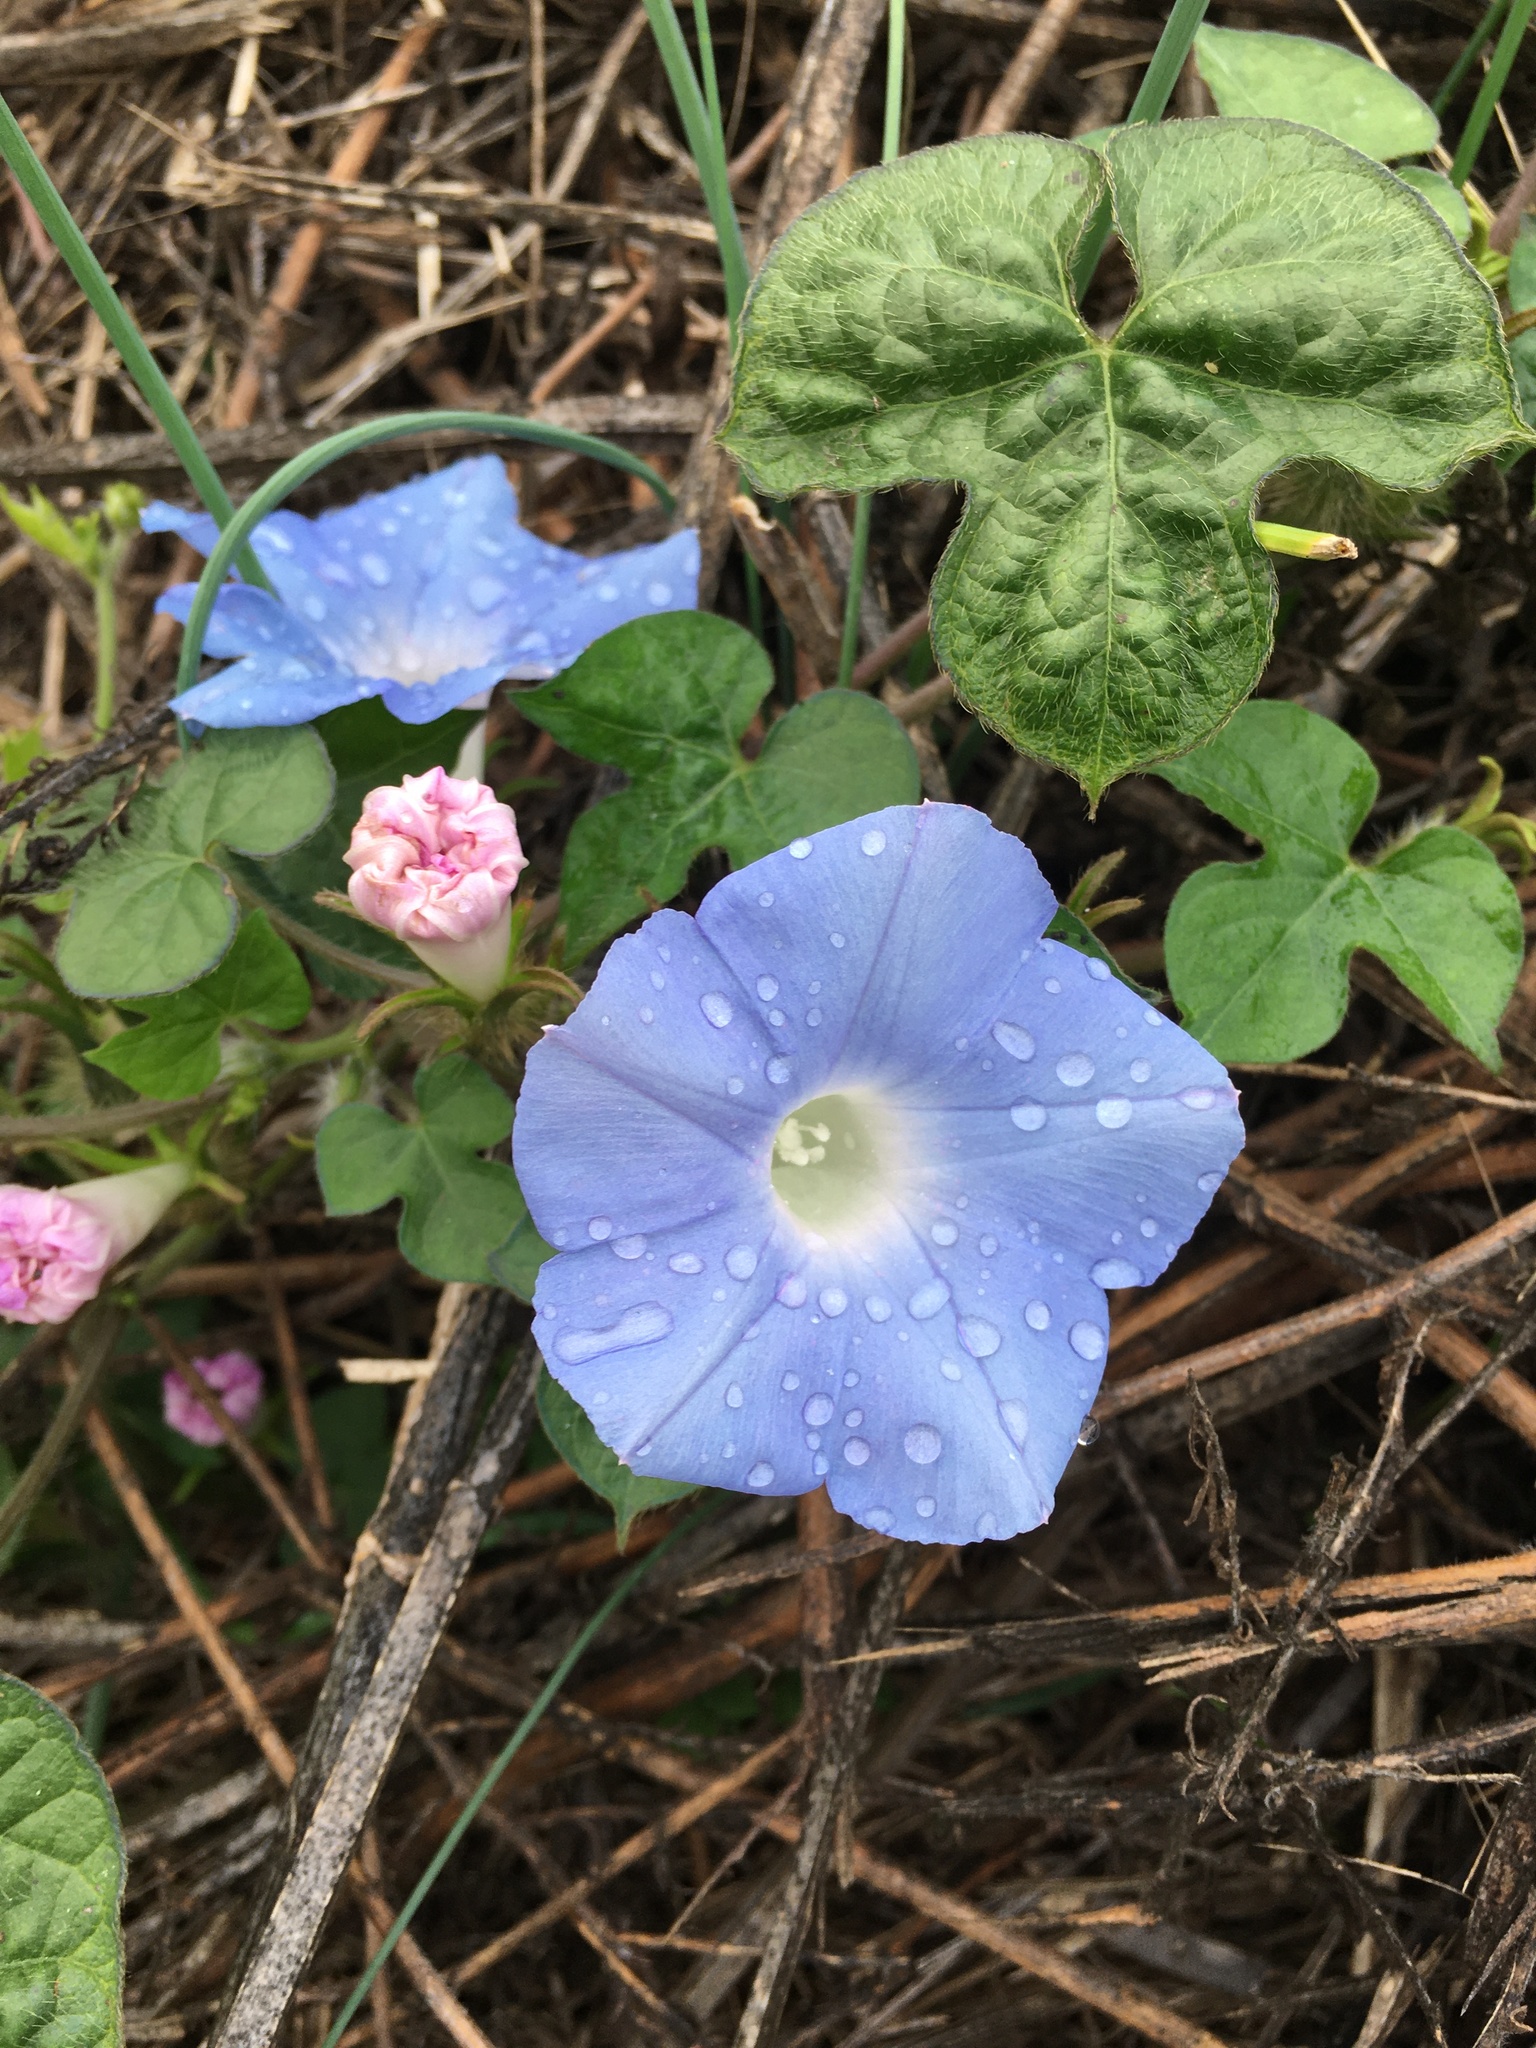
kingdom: Plantae
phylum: Tracheophyta
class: Magnoliopsida
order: Solanales
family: Convolvulaceae
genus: Ipomoea
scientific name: Ipomoea hederacea
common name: Ivy-leaved morning-glory
